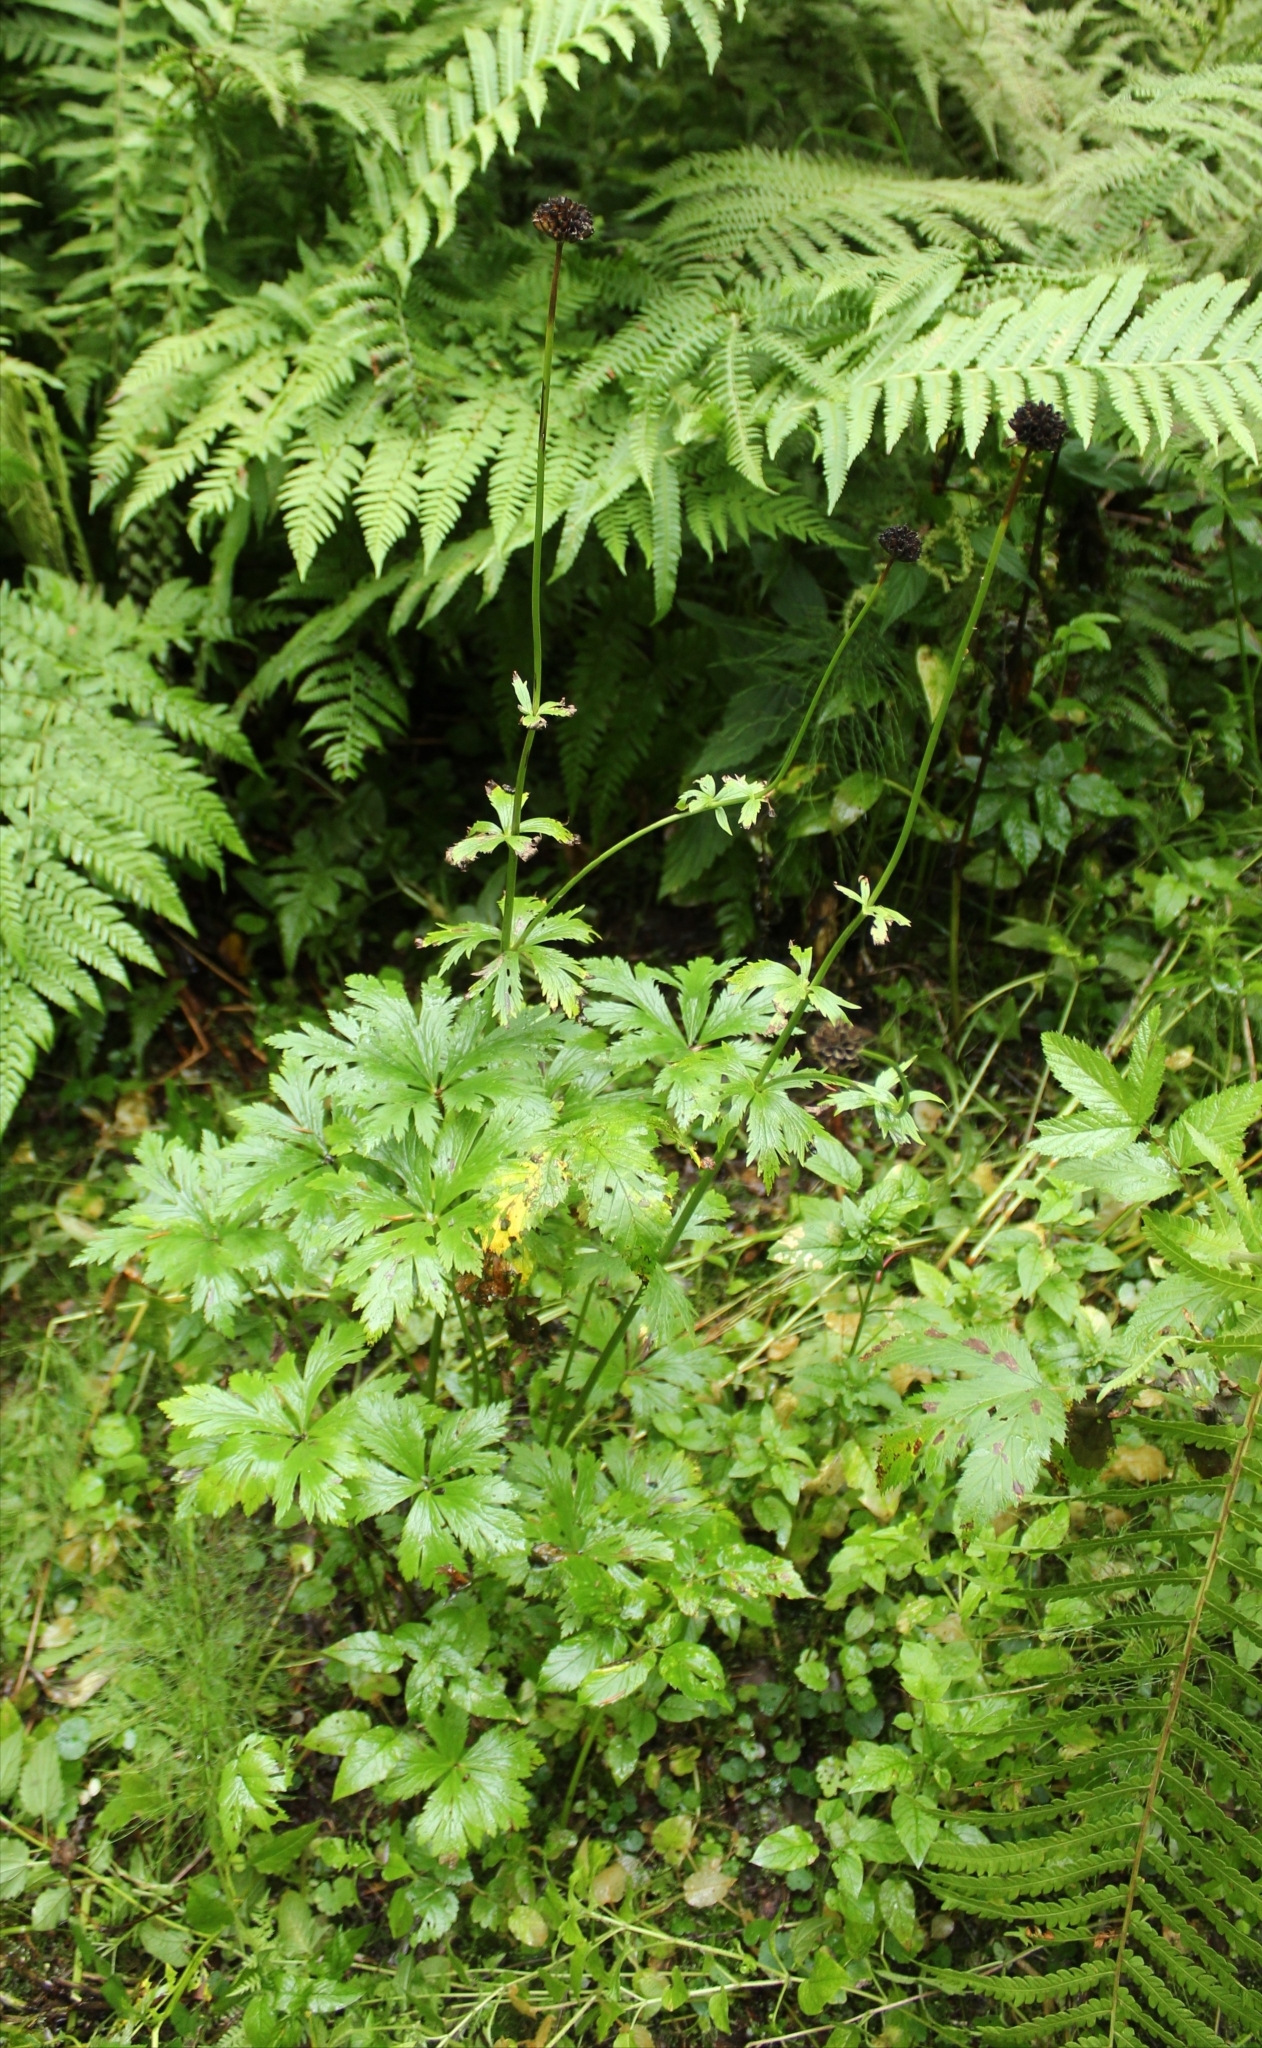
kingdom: Plantae
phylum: Tracheophyta
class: Magnoliopsida
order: Ranunculales
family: Ranunculaceae
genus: Trollius
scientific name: Trollius europaeus
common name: European globeflower
